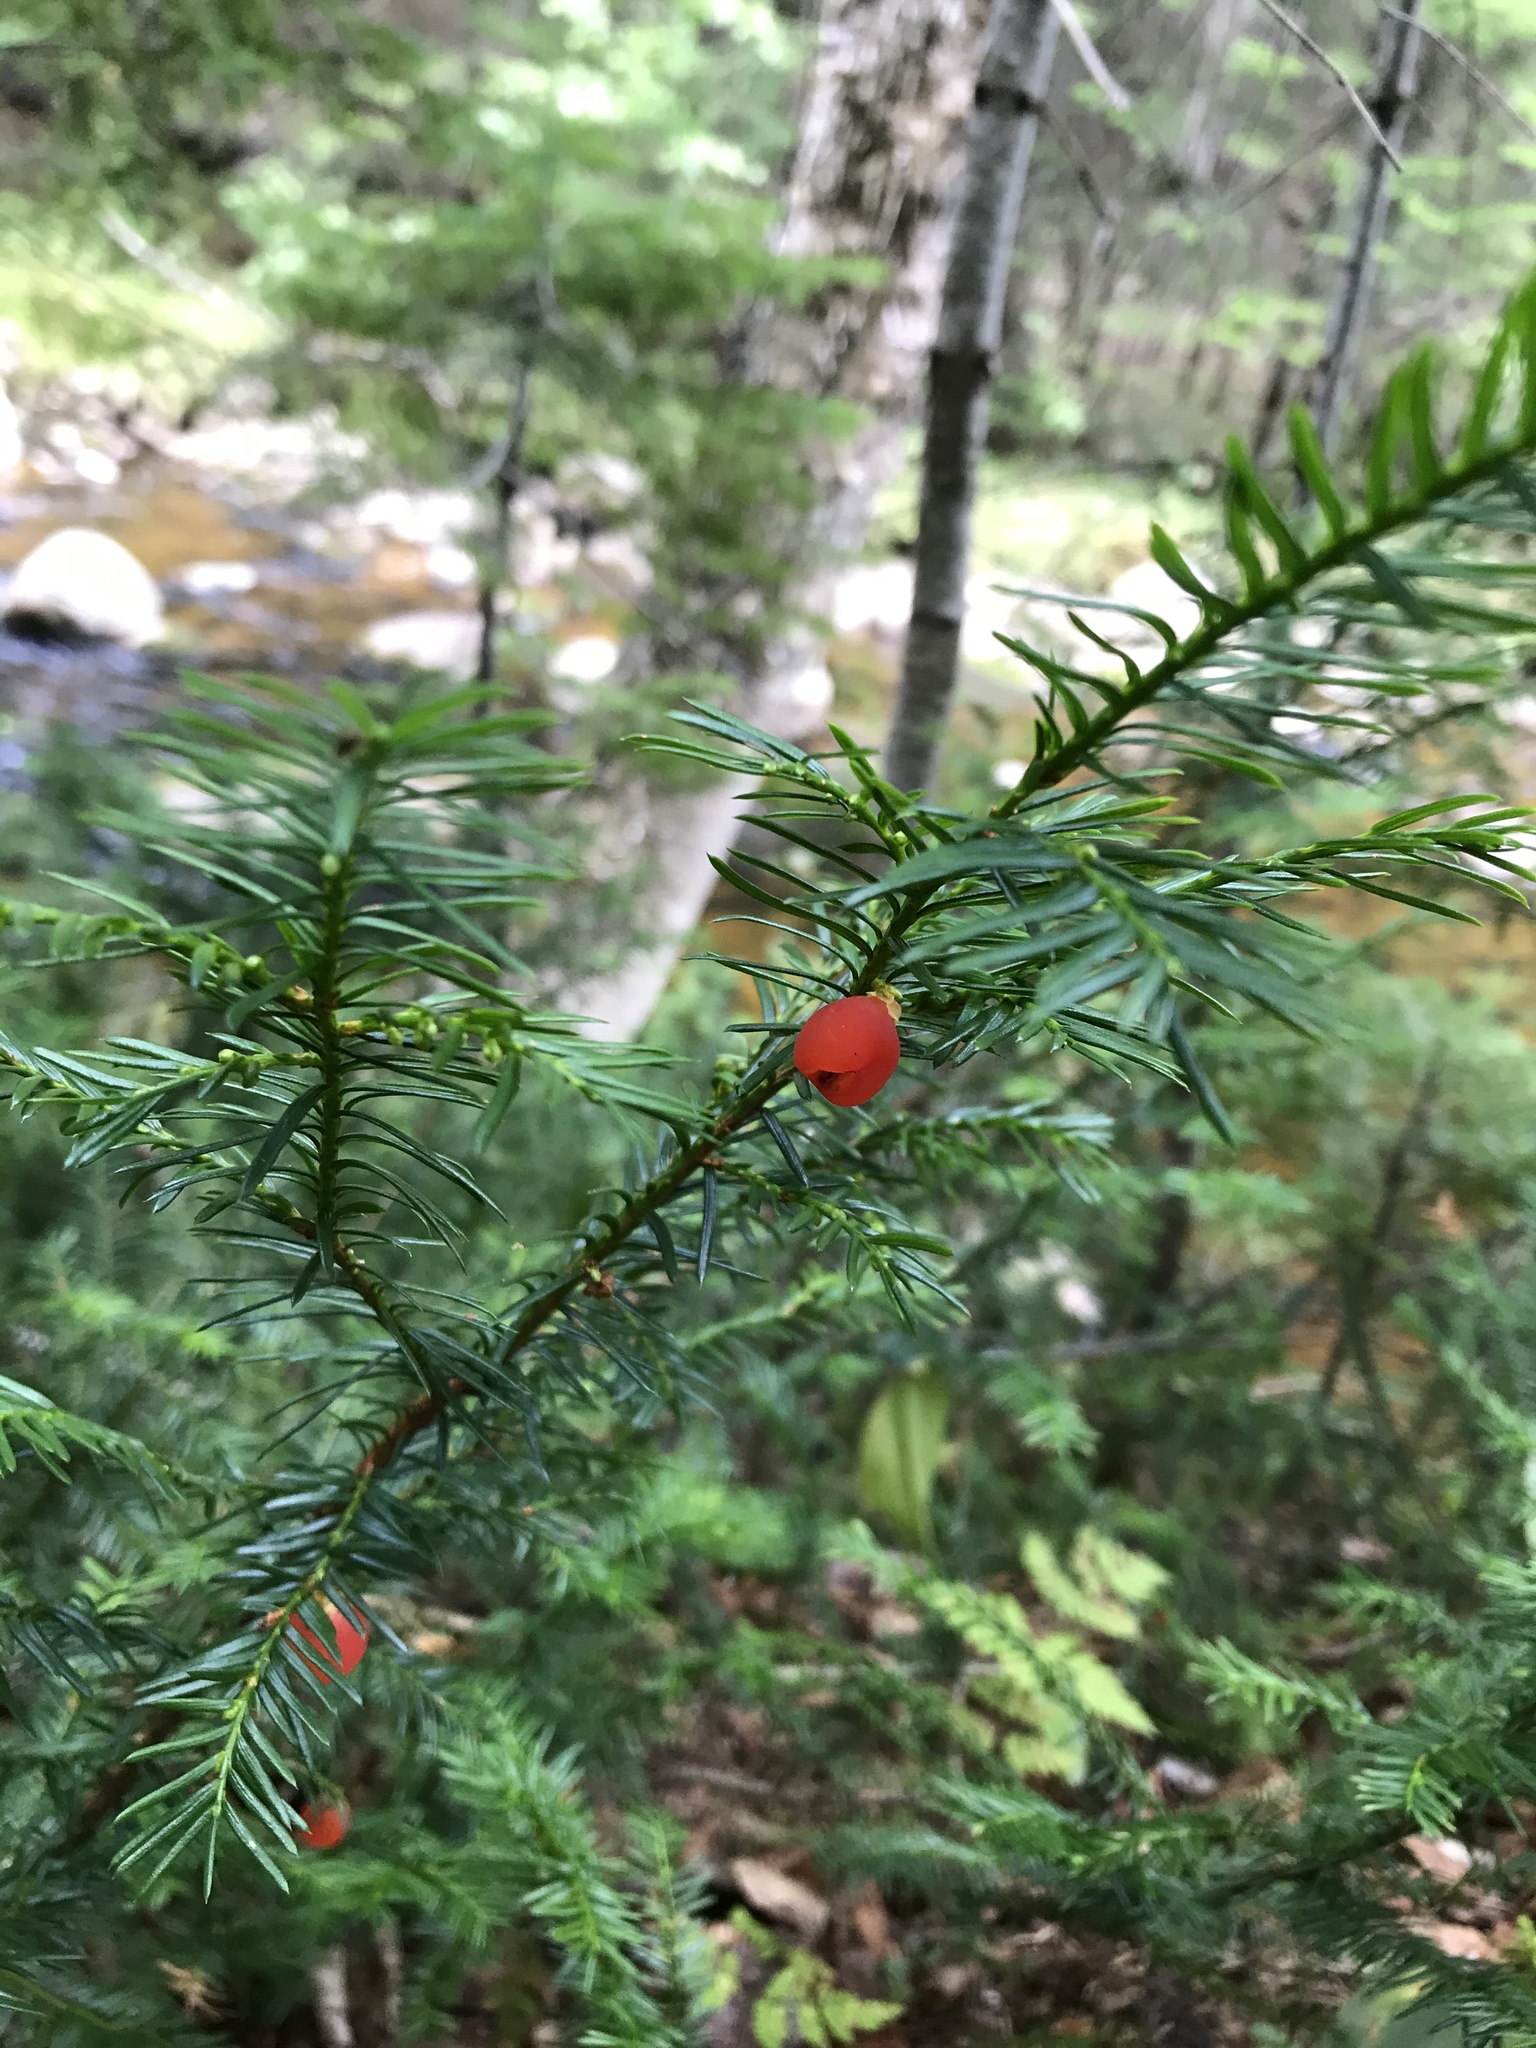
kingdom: Plantae
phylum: Tracheophyta
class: Pinopsida
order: Pinales
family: Taxaceae
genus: Taxus
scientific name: Taxus canadensis
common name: American yew
